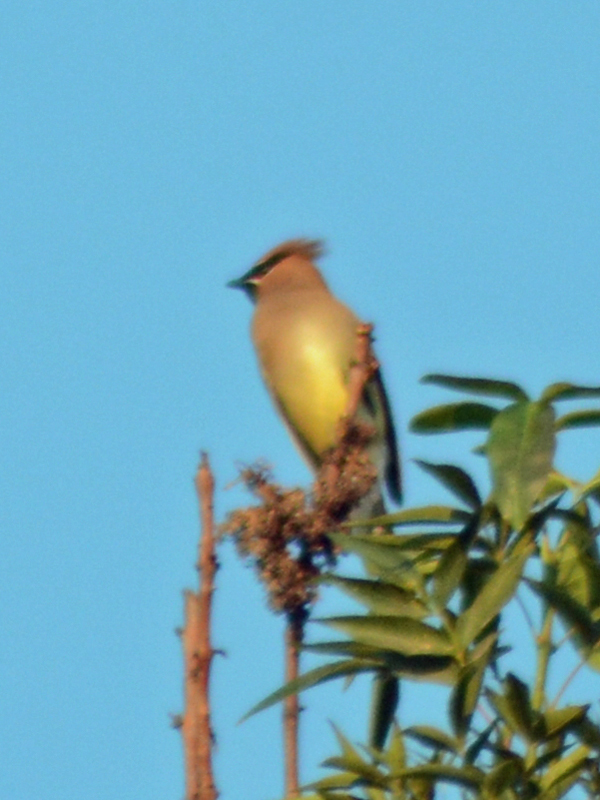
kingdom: Animalia
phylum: Chordata
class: Aves
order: Passeriformes
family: Bombycillidae
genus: Bombycilla
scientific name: Bombycilla cedrorum
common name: Cedar waxwing
